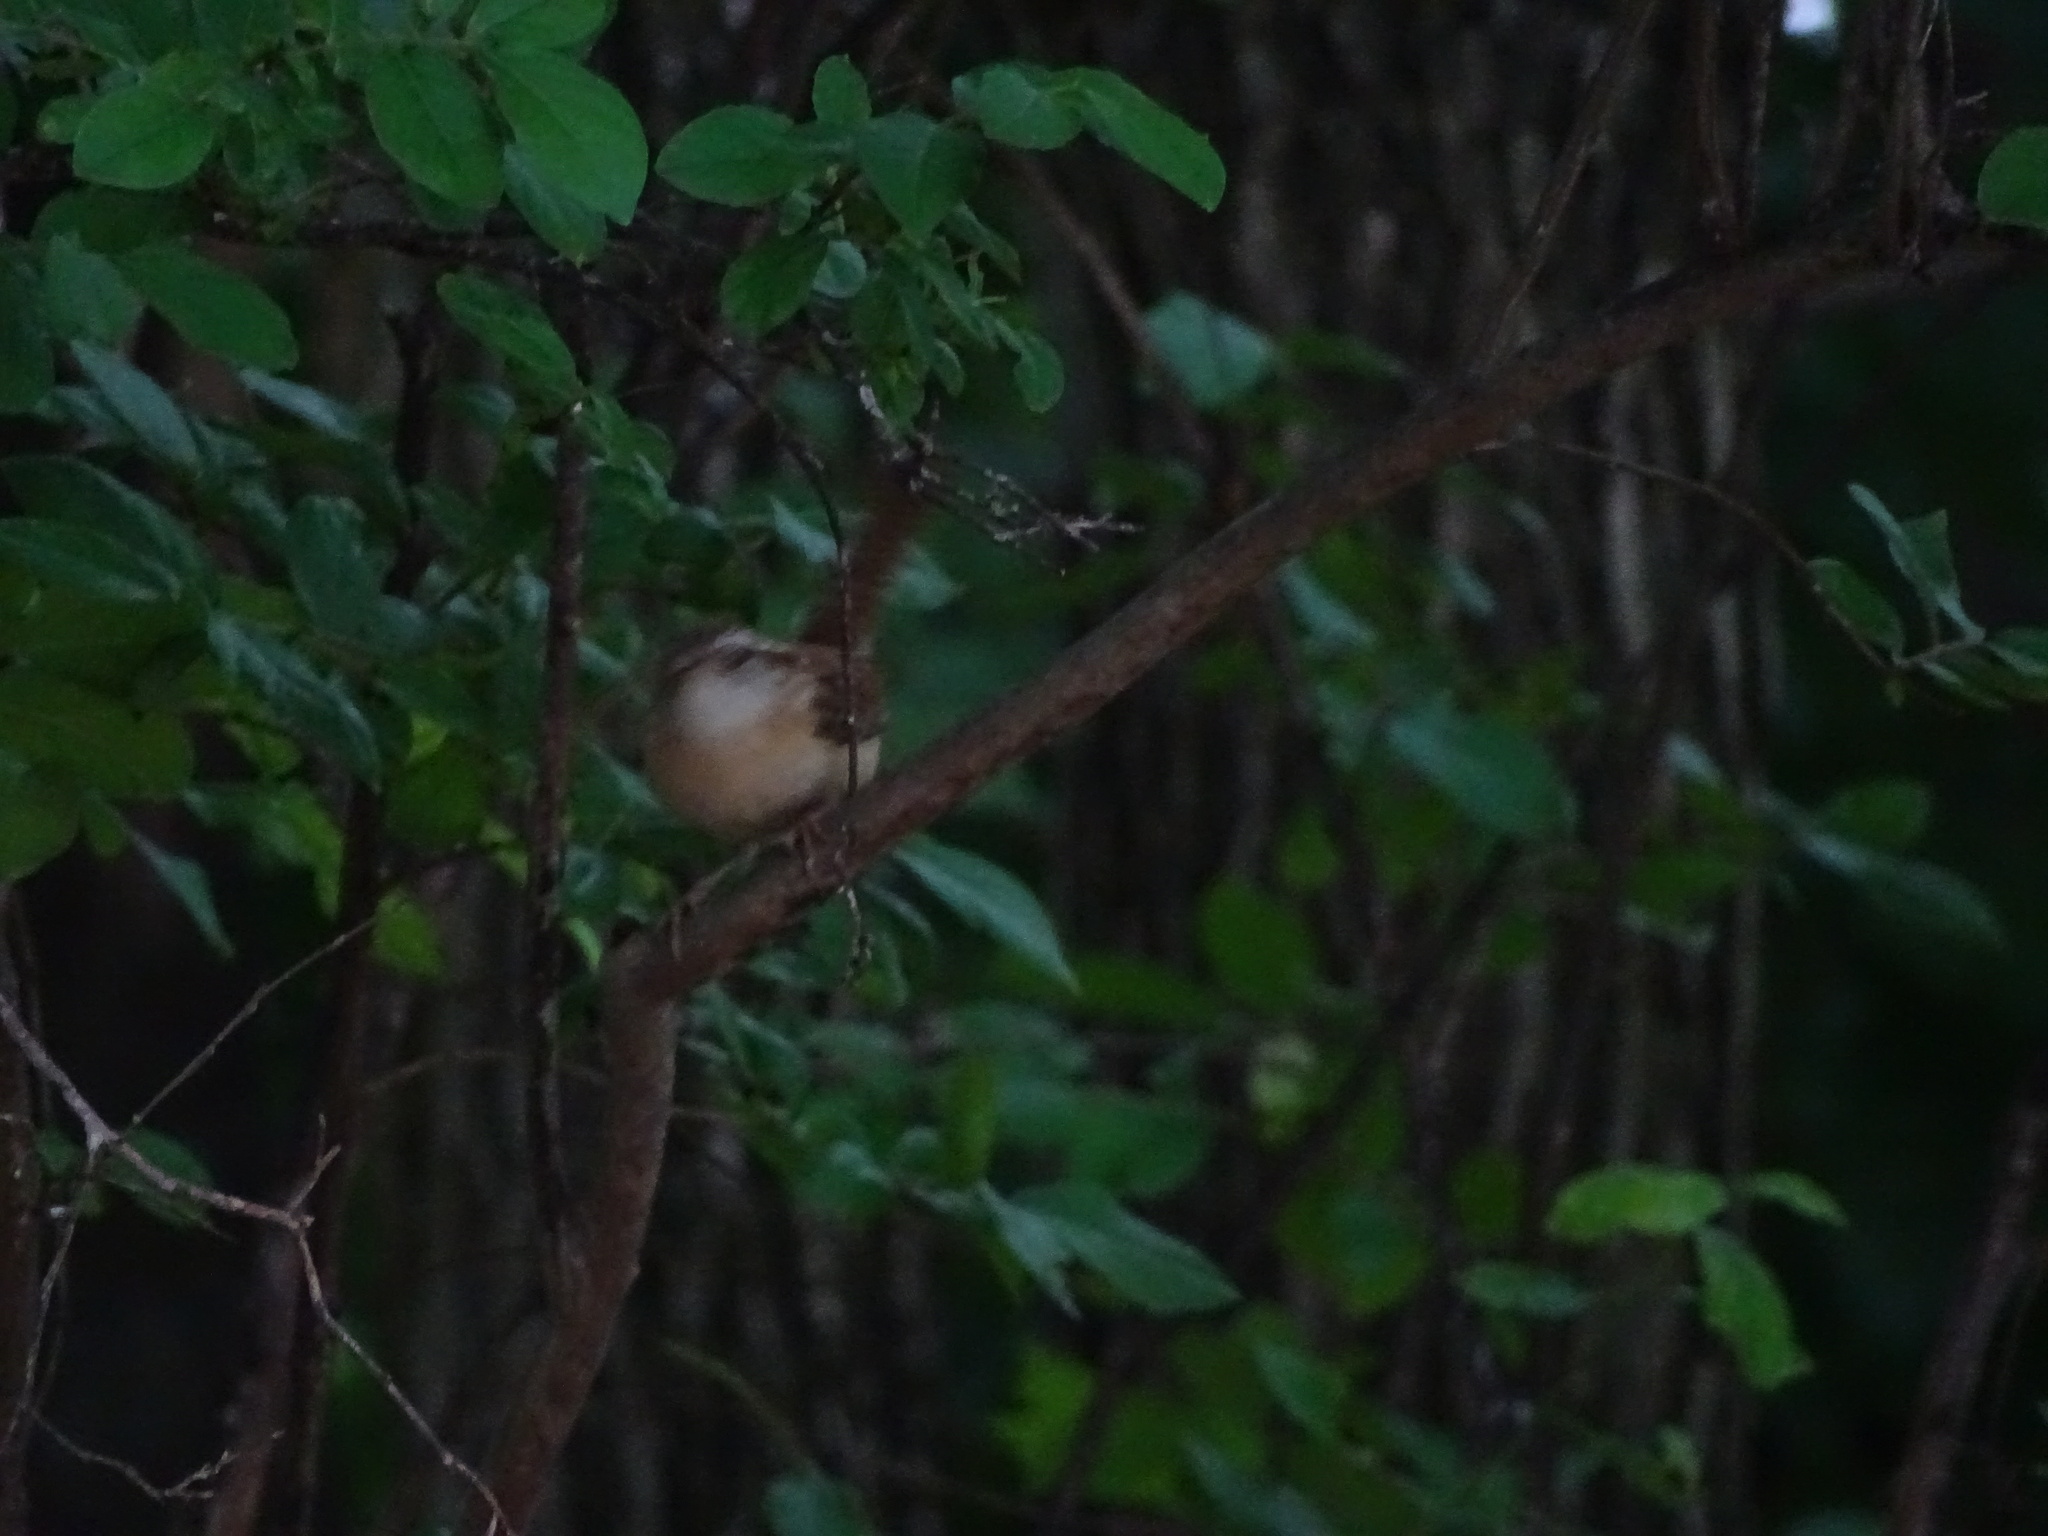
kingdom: Animalia
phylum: Chordata
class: Aves
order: Passeriformes
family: Troglodytidae
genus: Thryothorus
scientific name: Thryothorus ludovicianus
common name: Carolina wren
